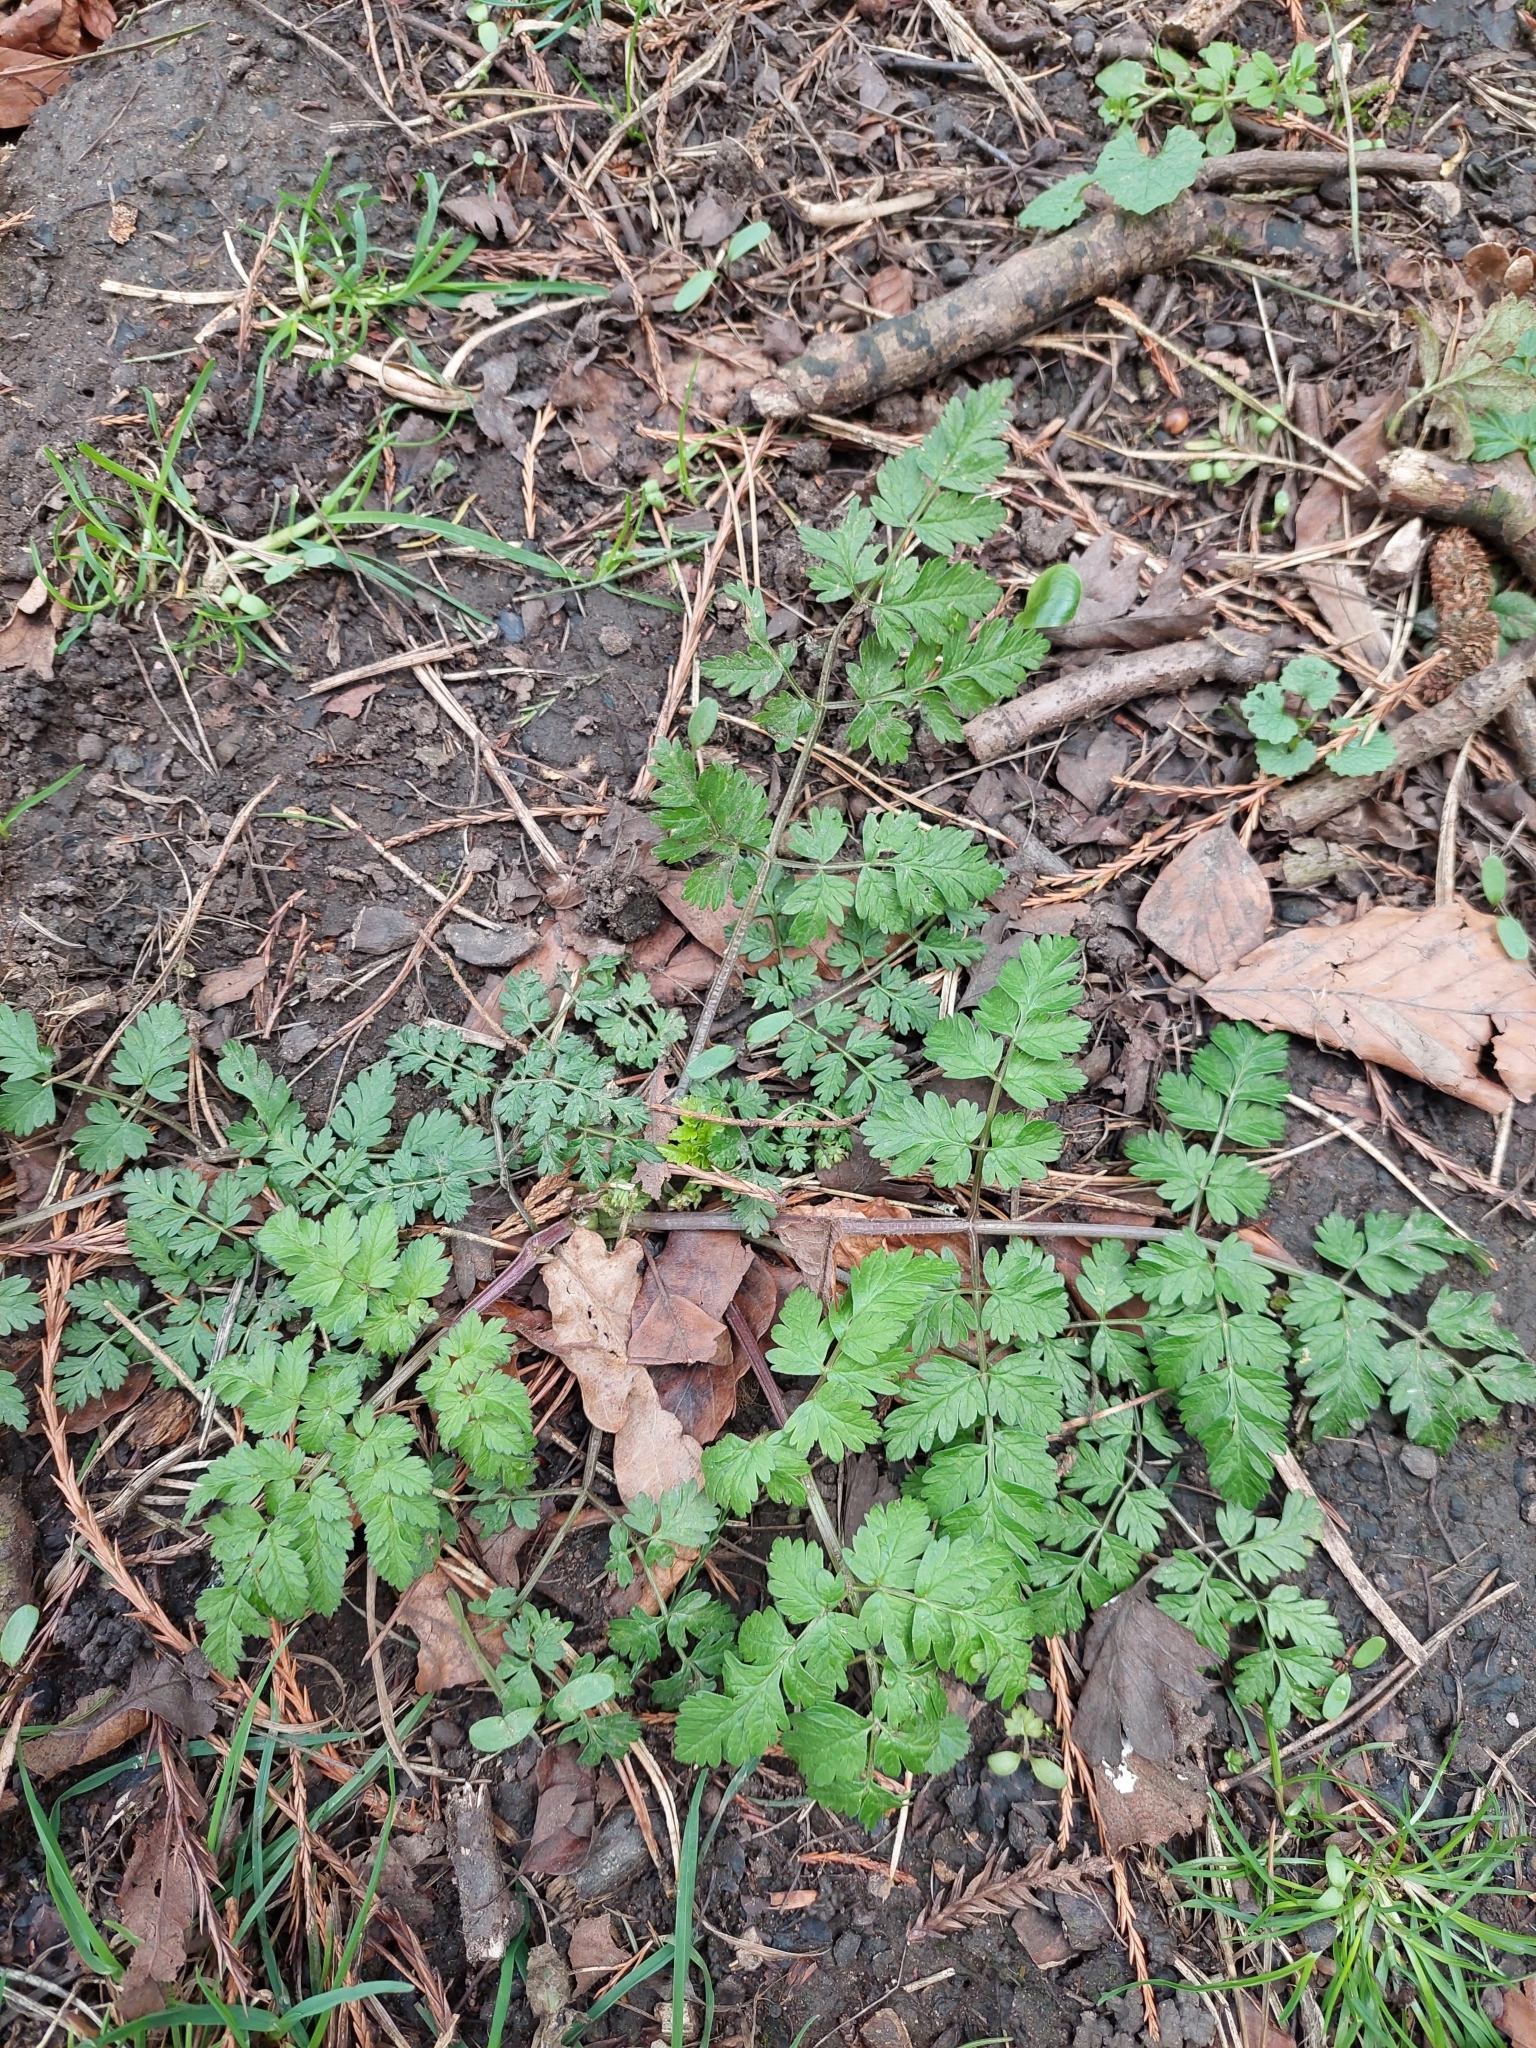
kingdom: Plantae
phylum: Tracheophyta
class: Magnoliopsida
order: Apiales
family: Apiaceae
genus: Anthriscus
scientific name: Anthriscus sylvestris
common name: Cow parsley
